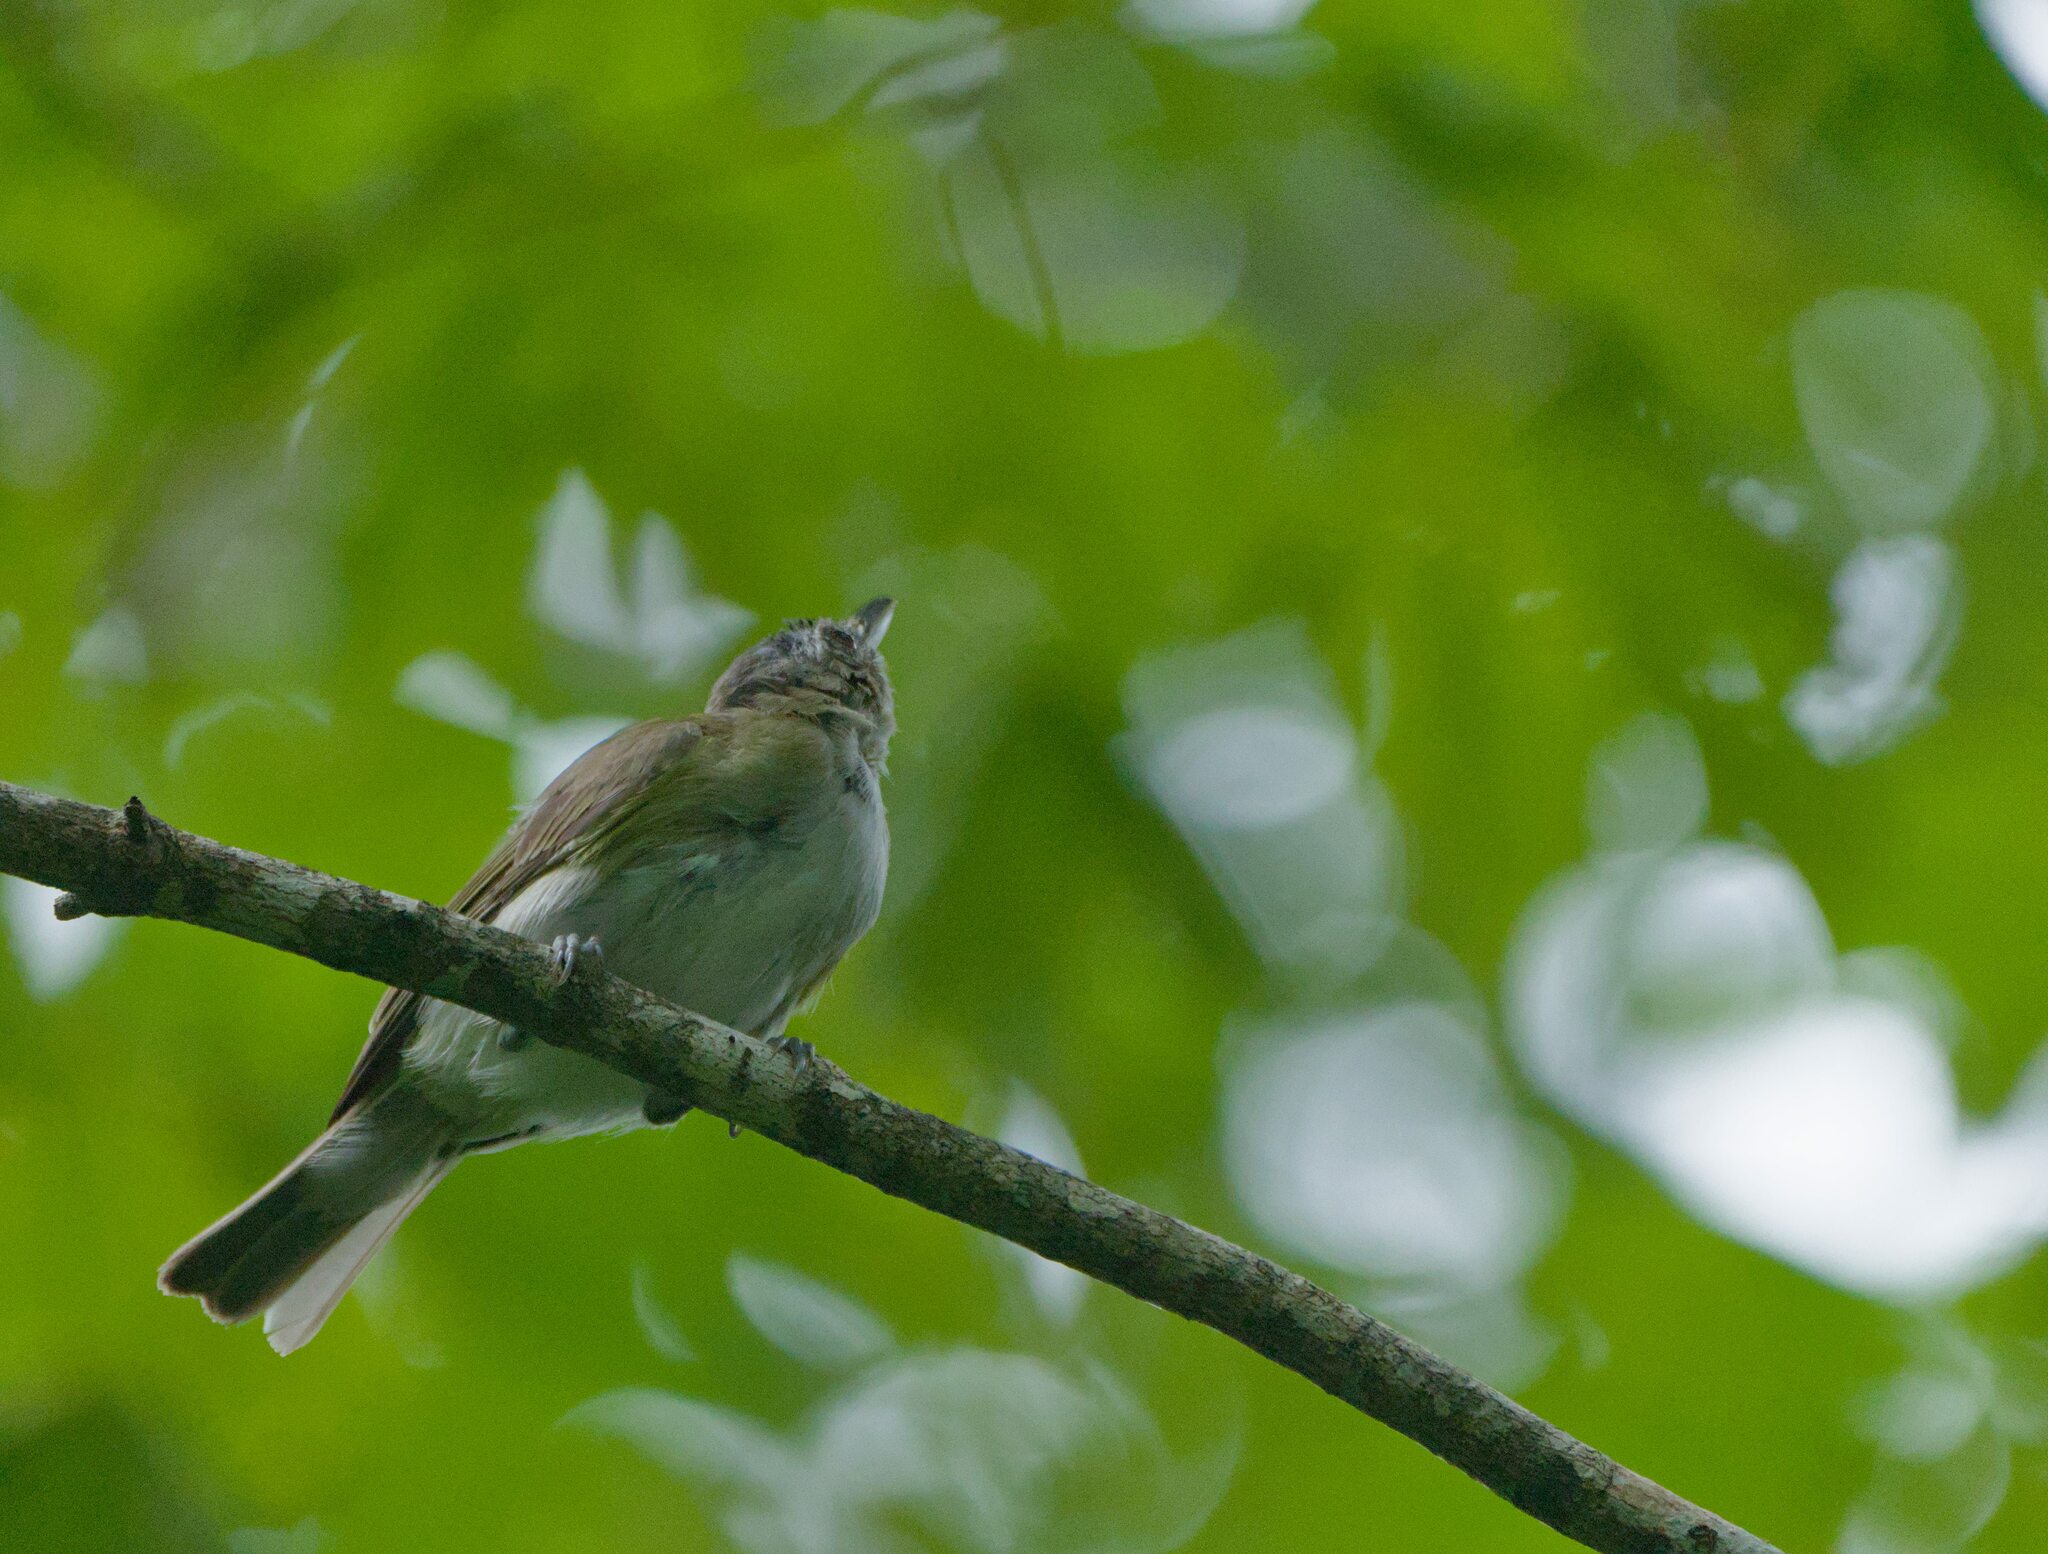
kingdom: Animalia
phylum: Chordata
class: Aves
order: Passeriformes
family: Vireonidae
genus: Vireo
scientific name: Vireo olivaceus
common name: Red-eyed vireo
